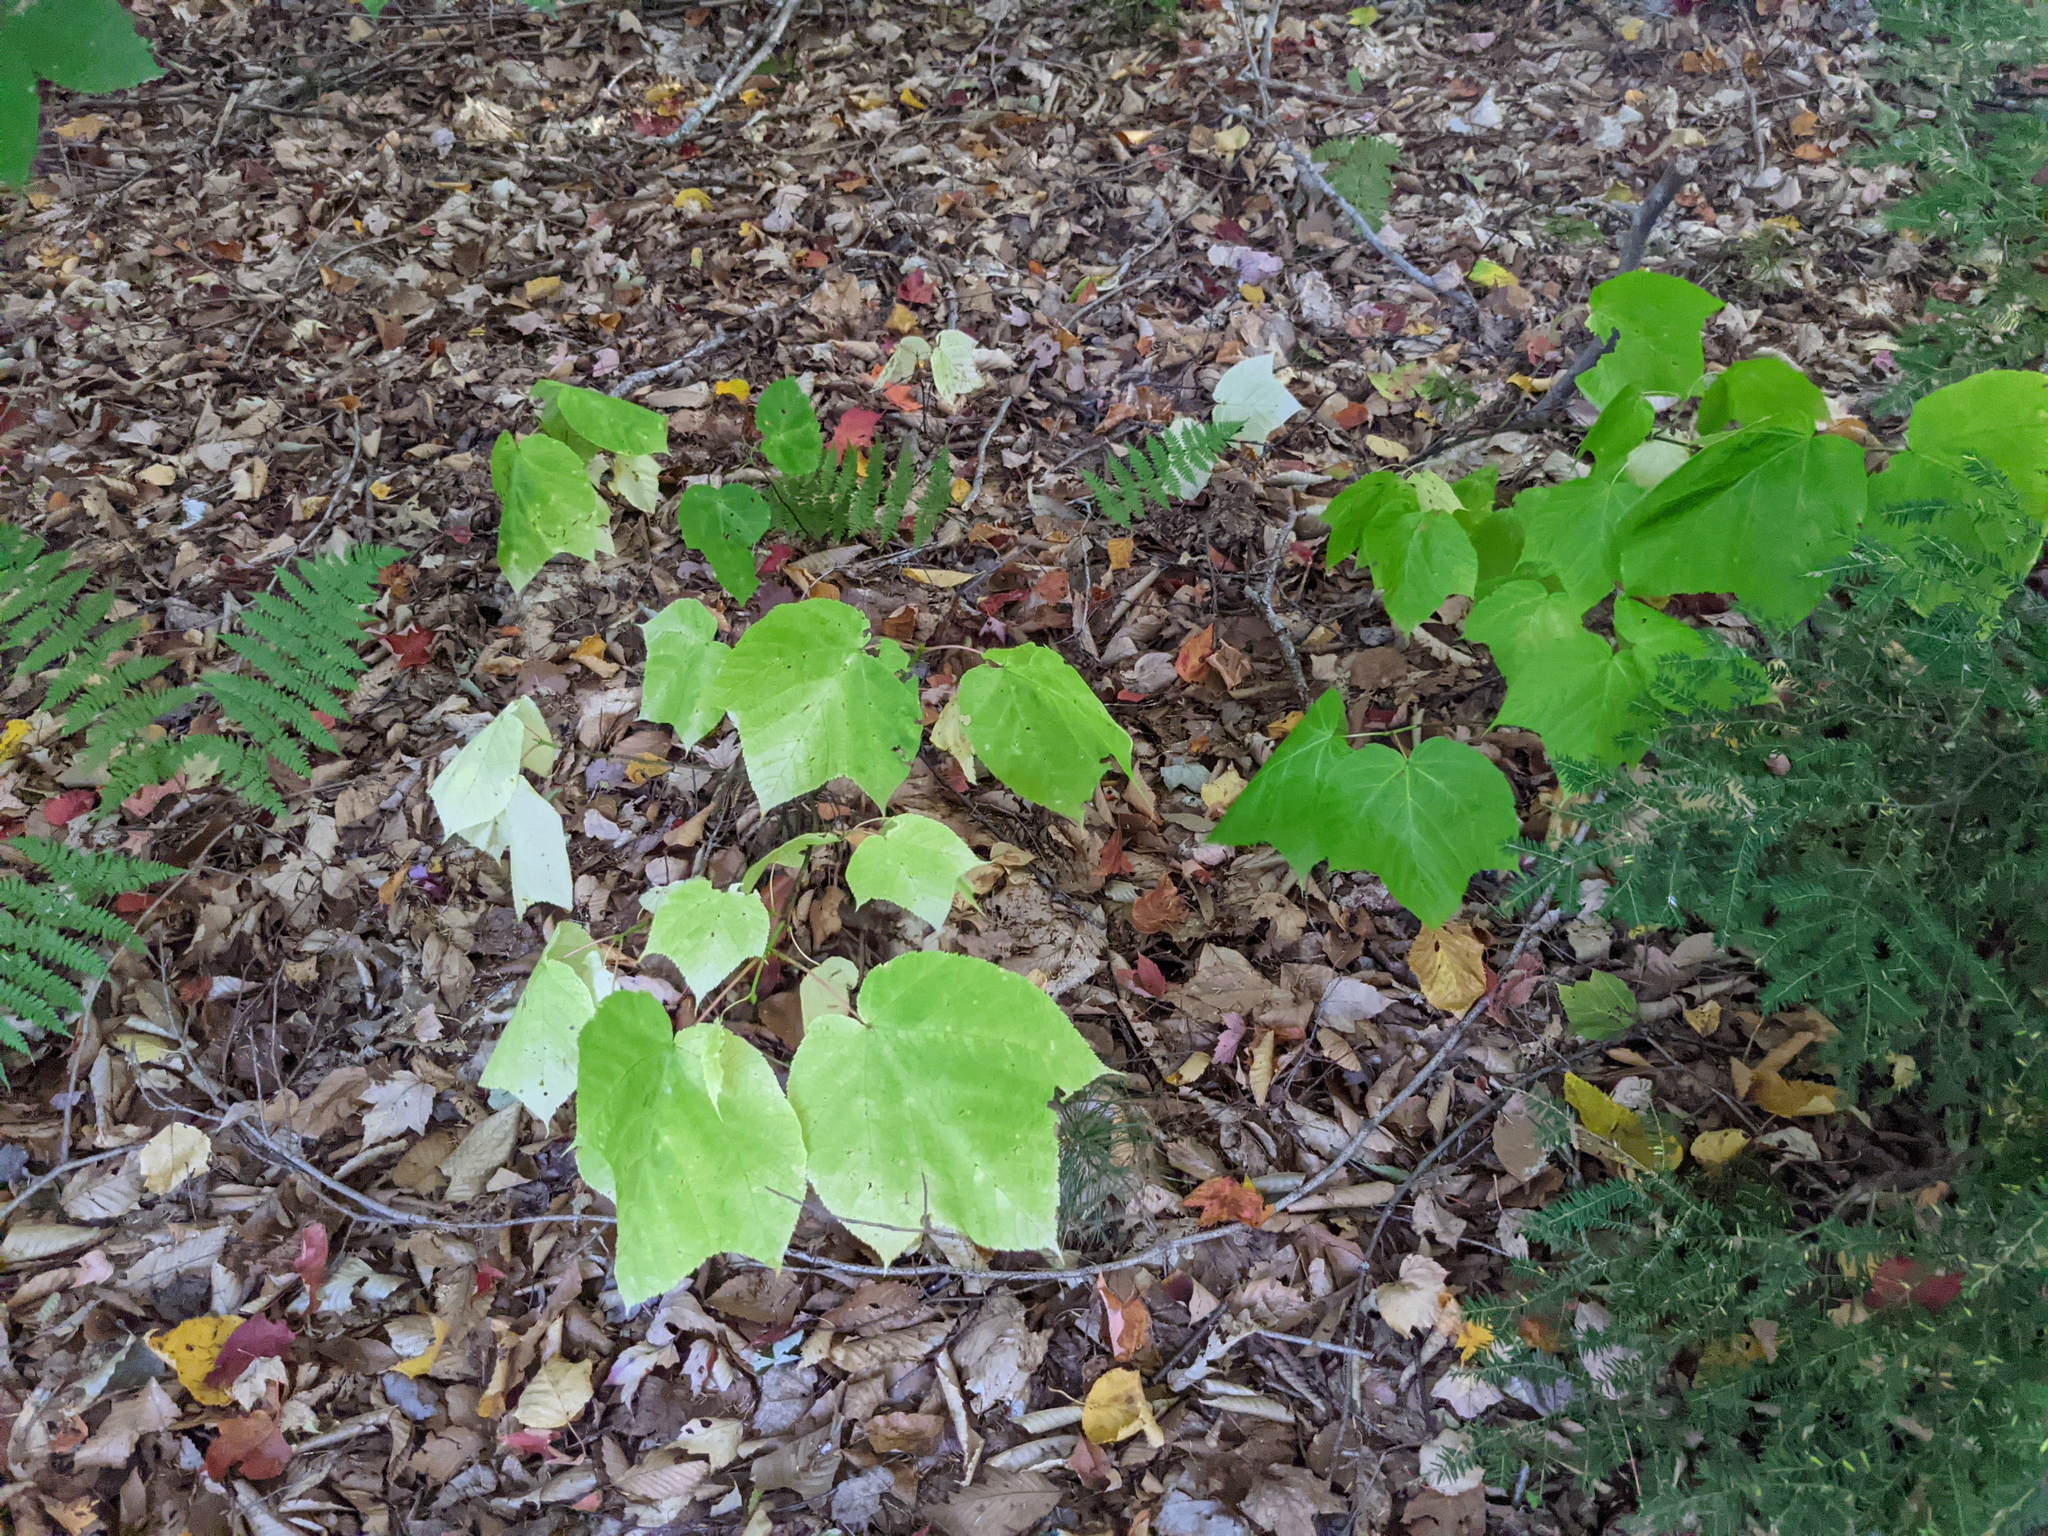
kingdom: Plantae
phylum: Tracheophyta
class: Magnoliopsida
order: Sapindales
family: Sapindaceae
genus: Acer
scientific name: Acer pensylvanicum
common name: Moosewood
